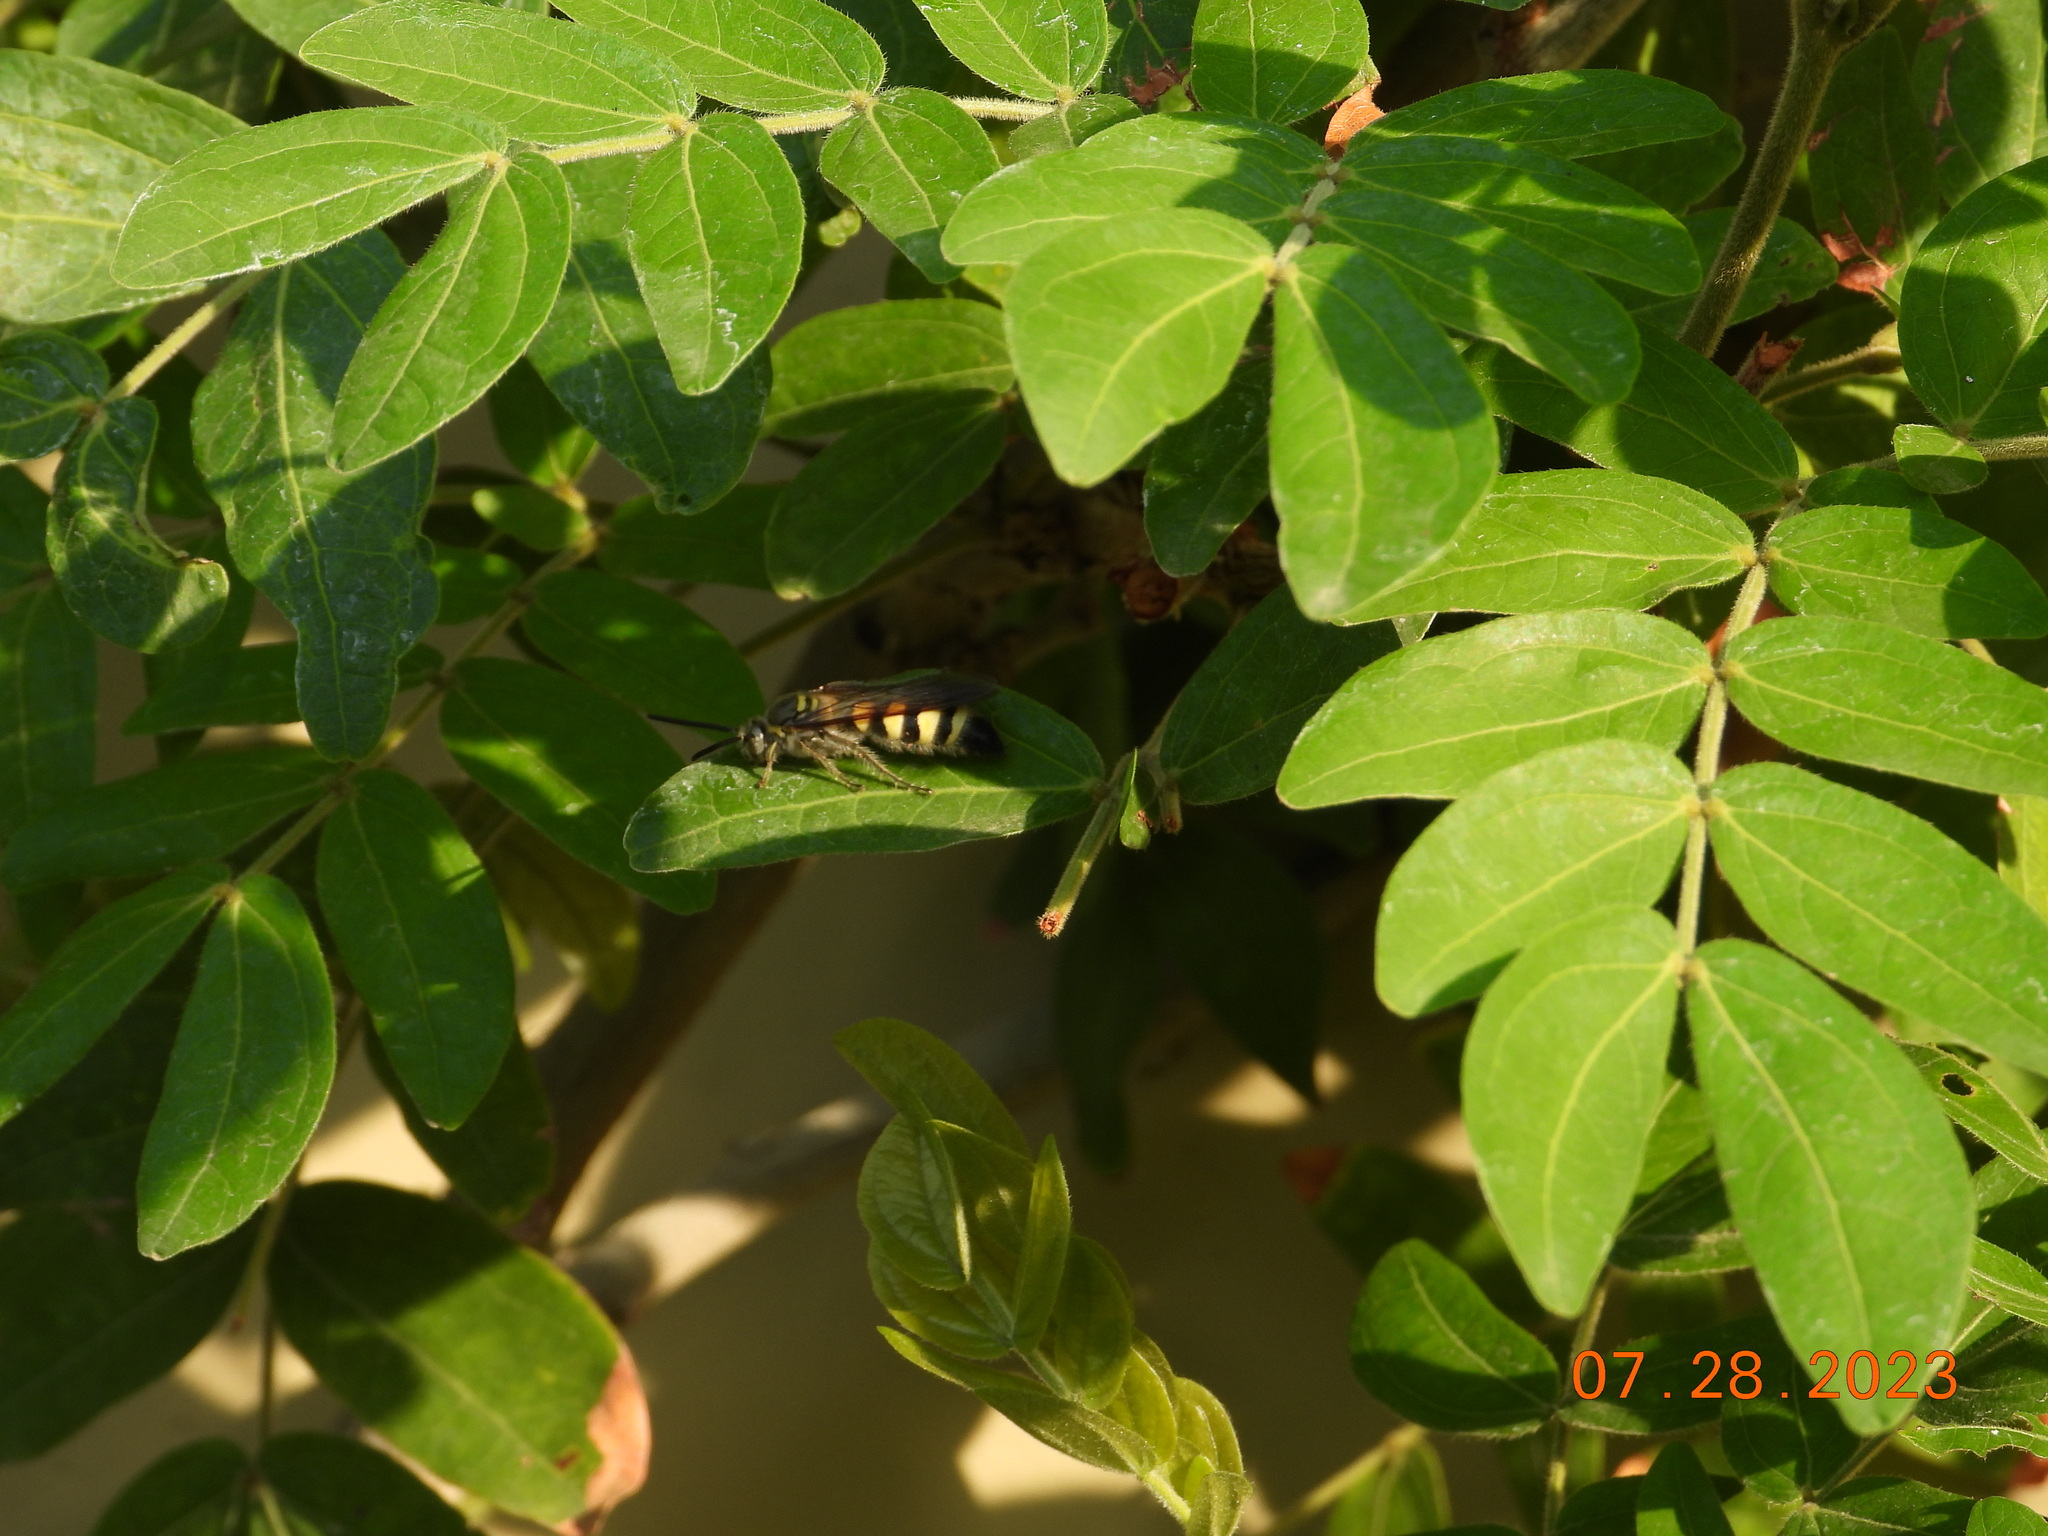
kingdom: Animalia
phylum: Arthropoda
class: Insecta
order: Hymenoptera
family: Scoliidae
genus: Dielis
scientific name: Dielis tolteca
